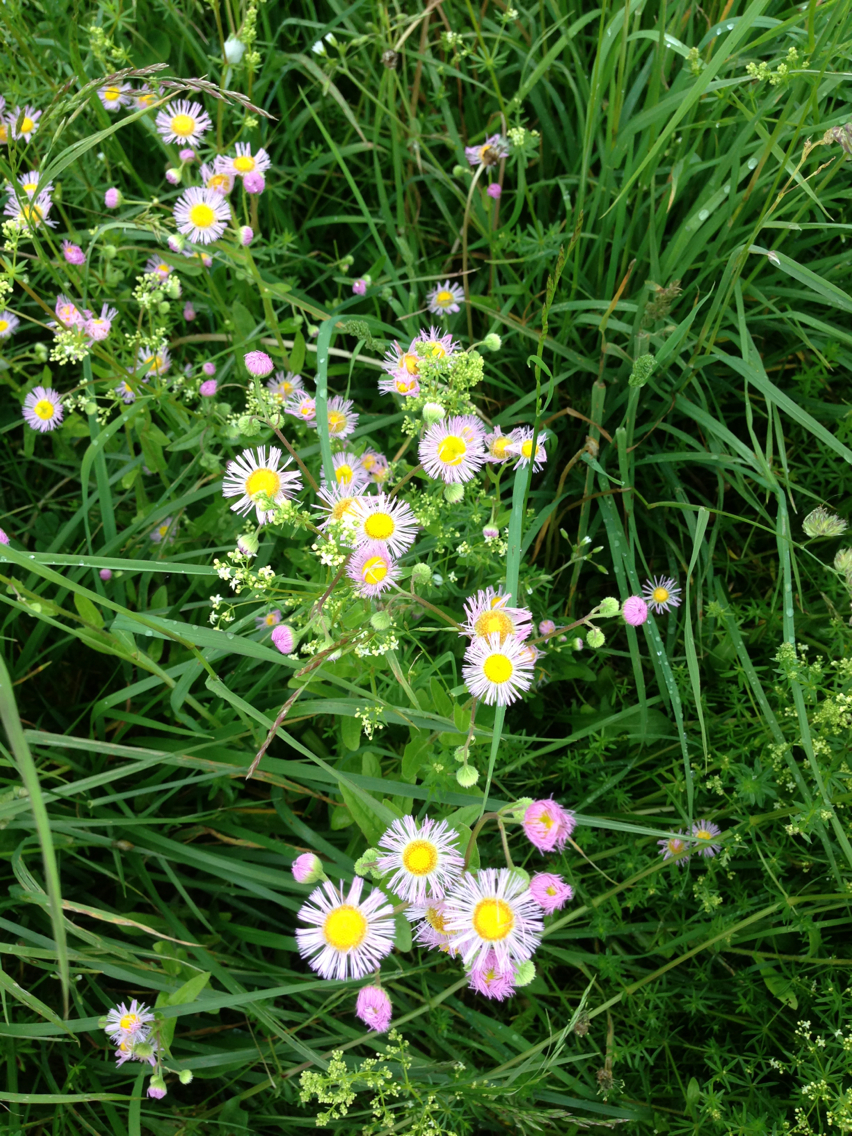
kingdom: Plantae
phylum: Tracheophyta
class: Magnoliopsida
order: Asterales
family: Asteraceae
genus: Erigeron
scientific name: Erigeron philadelphicus
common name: Robin's-plantain
